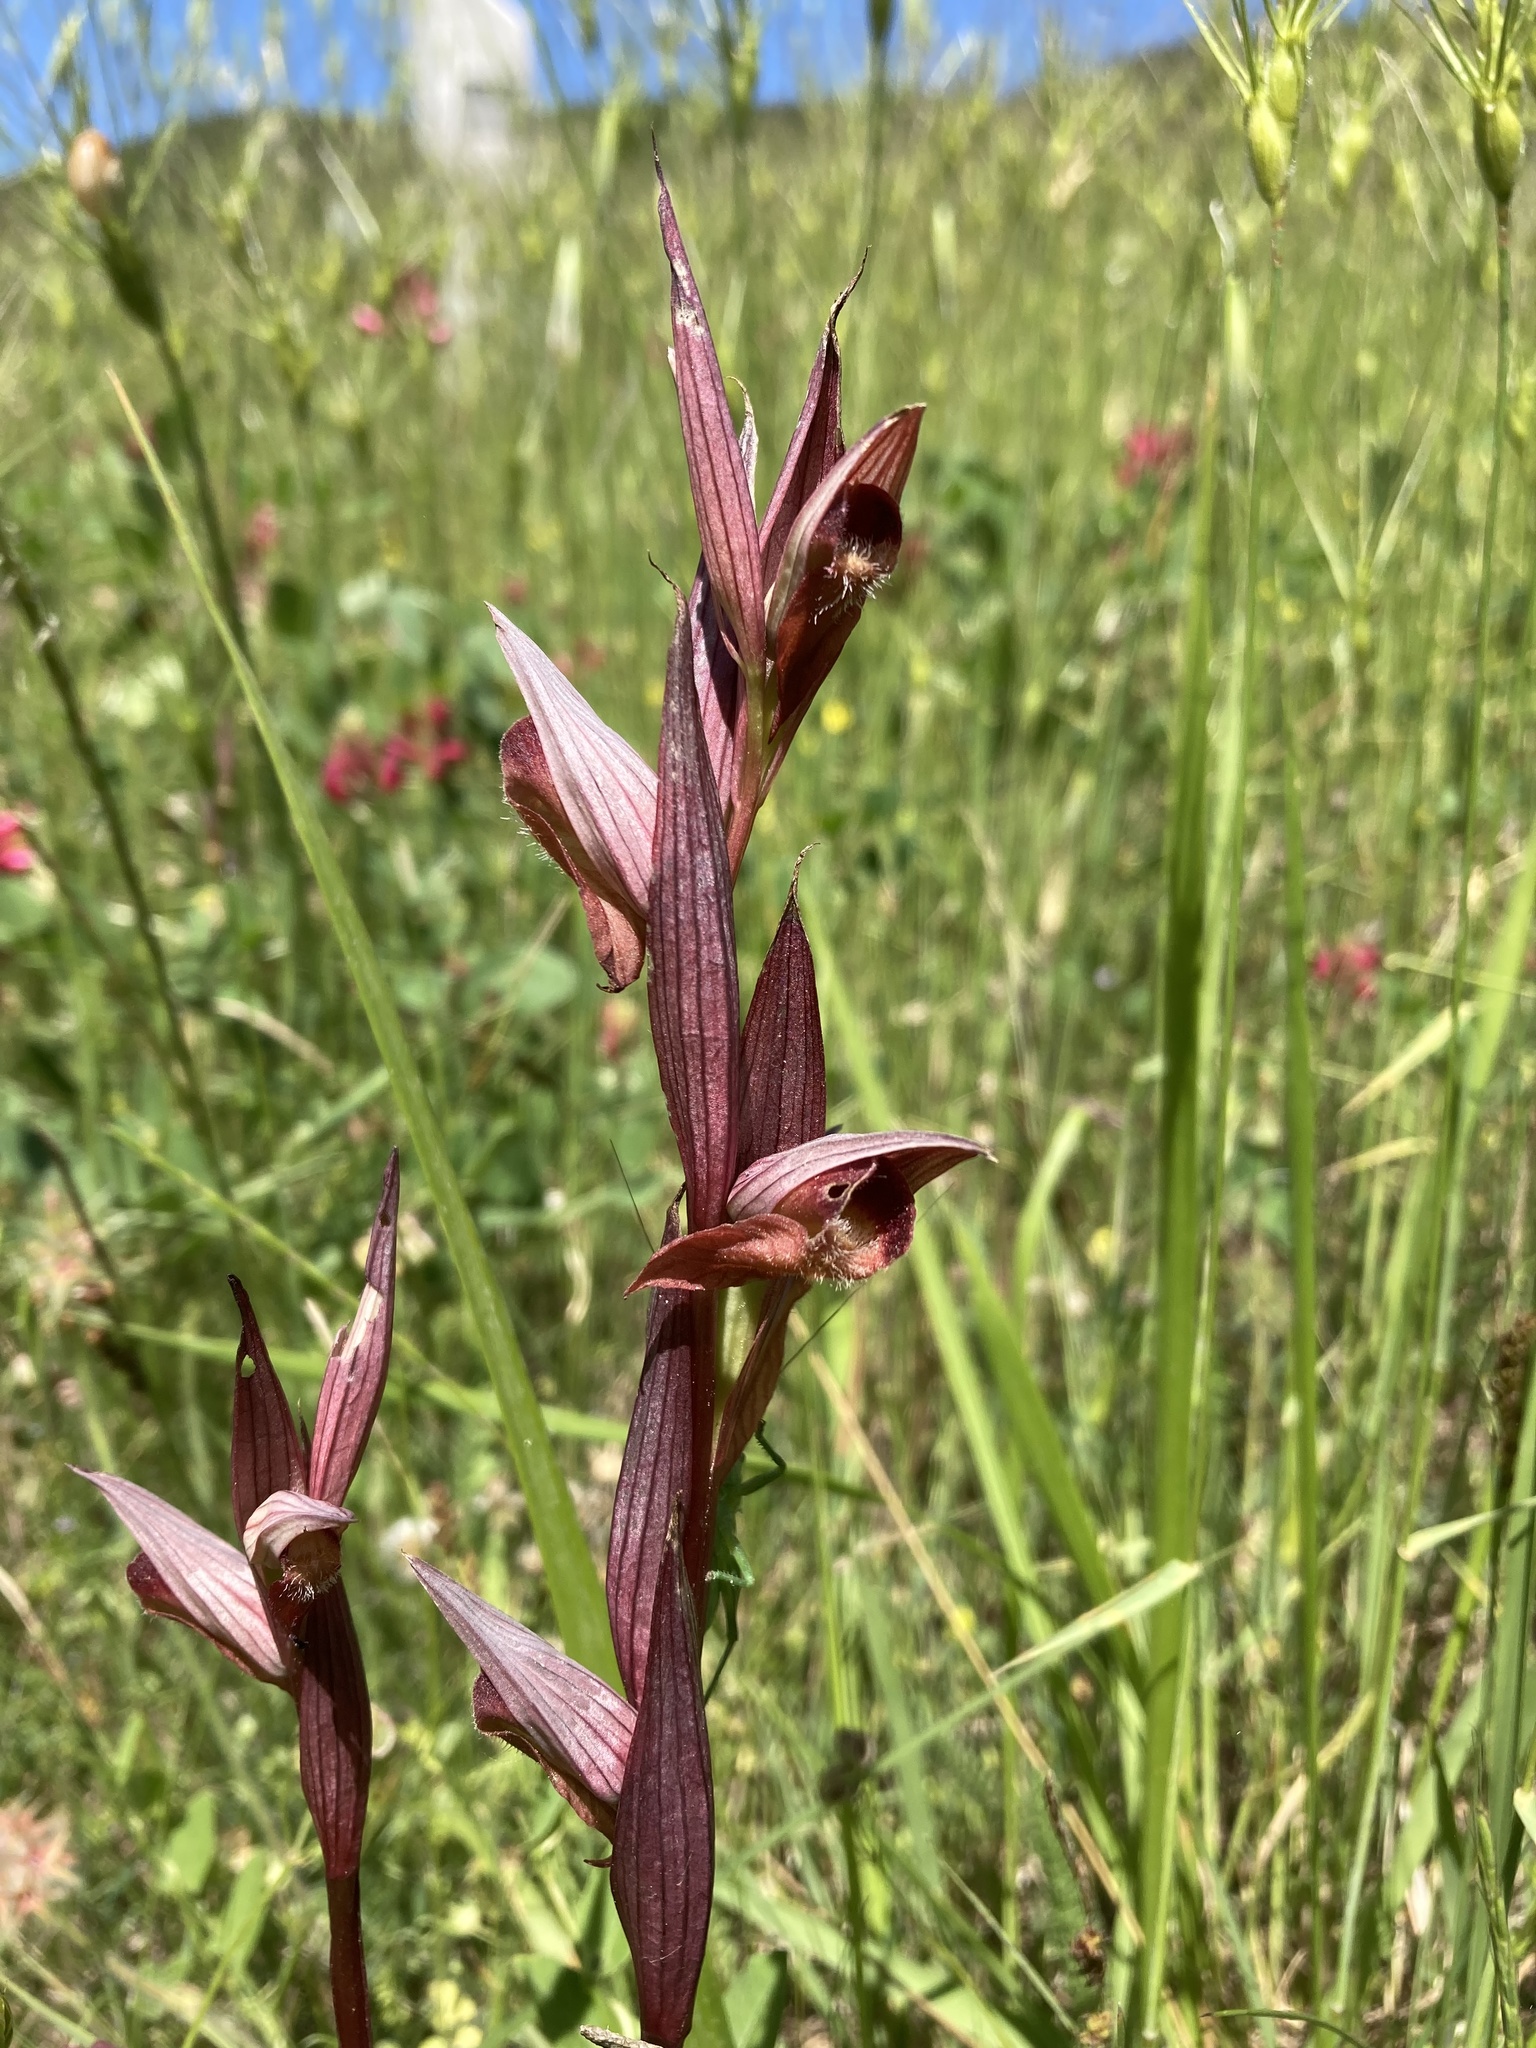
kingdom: Plantae
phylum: Tracheophyta
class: Liliopsida
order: Asparagales
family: Orchidaceae
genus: Serapias
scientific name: Serapias vomeracea
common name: Long-lipped tongue-orchid
